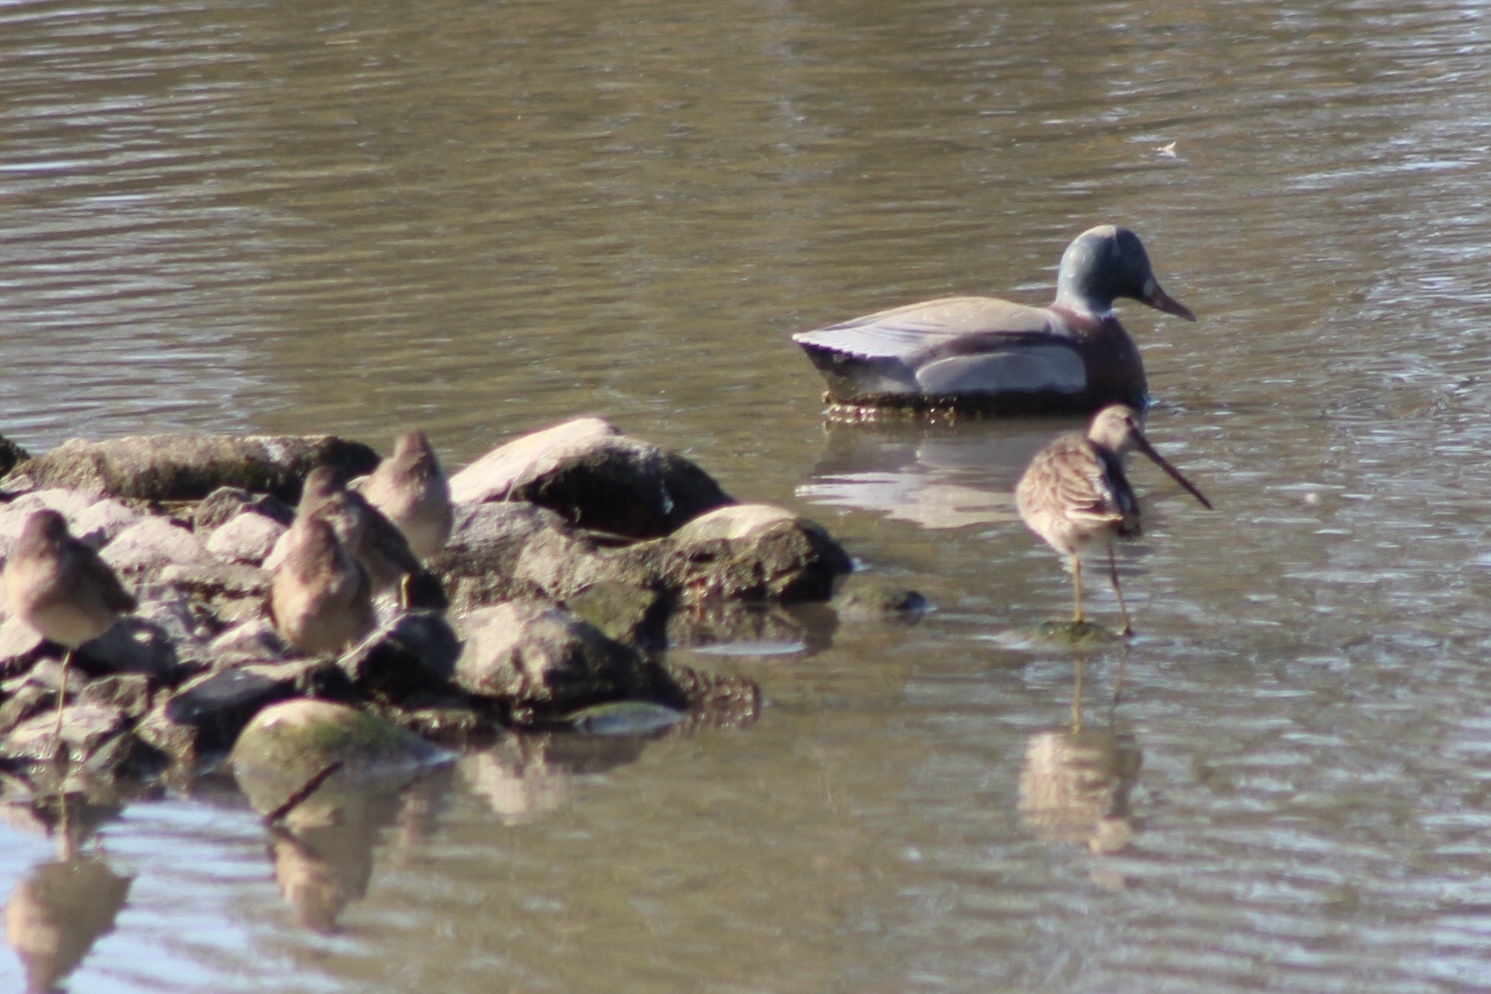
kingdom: Animalia
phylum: Chordata
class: Aves
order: Charadriiformes
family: Scolopacidae
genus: Limnodromus
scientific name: Limnodromus
